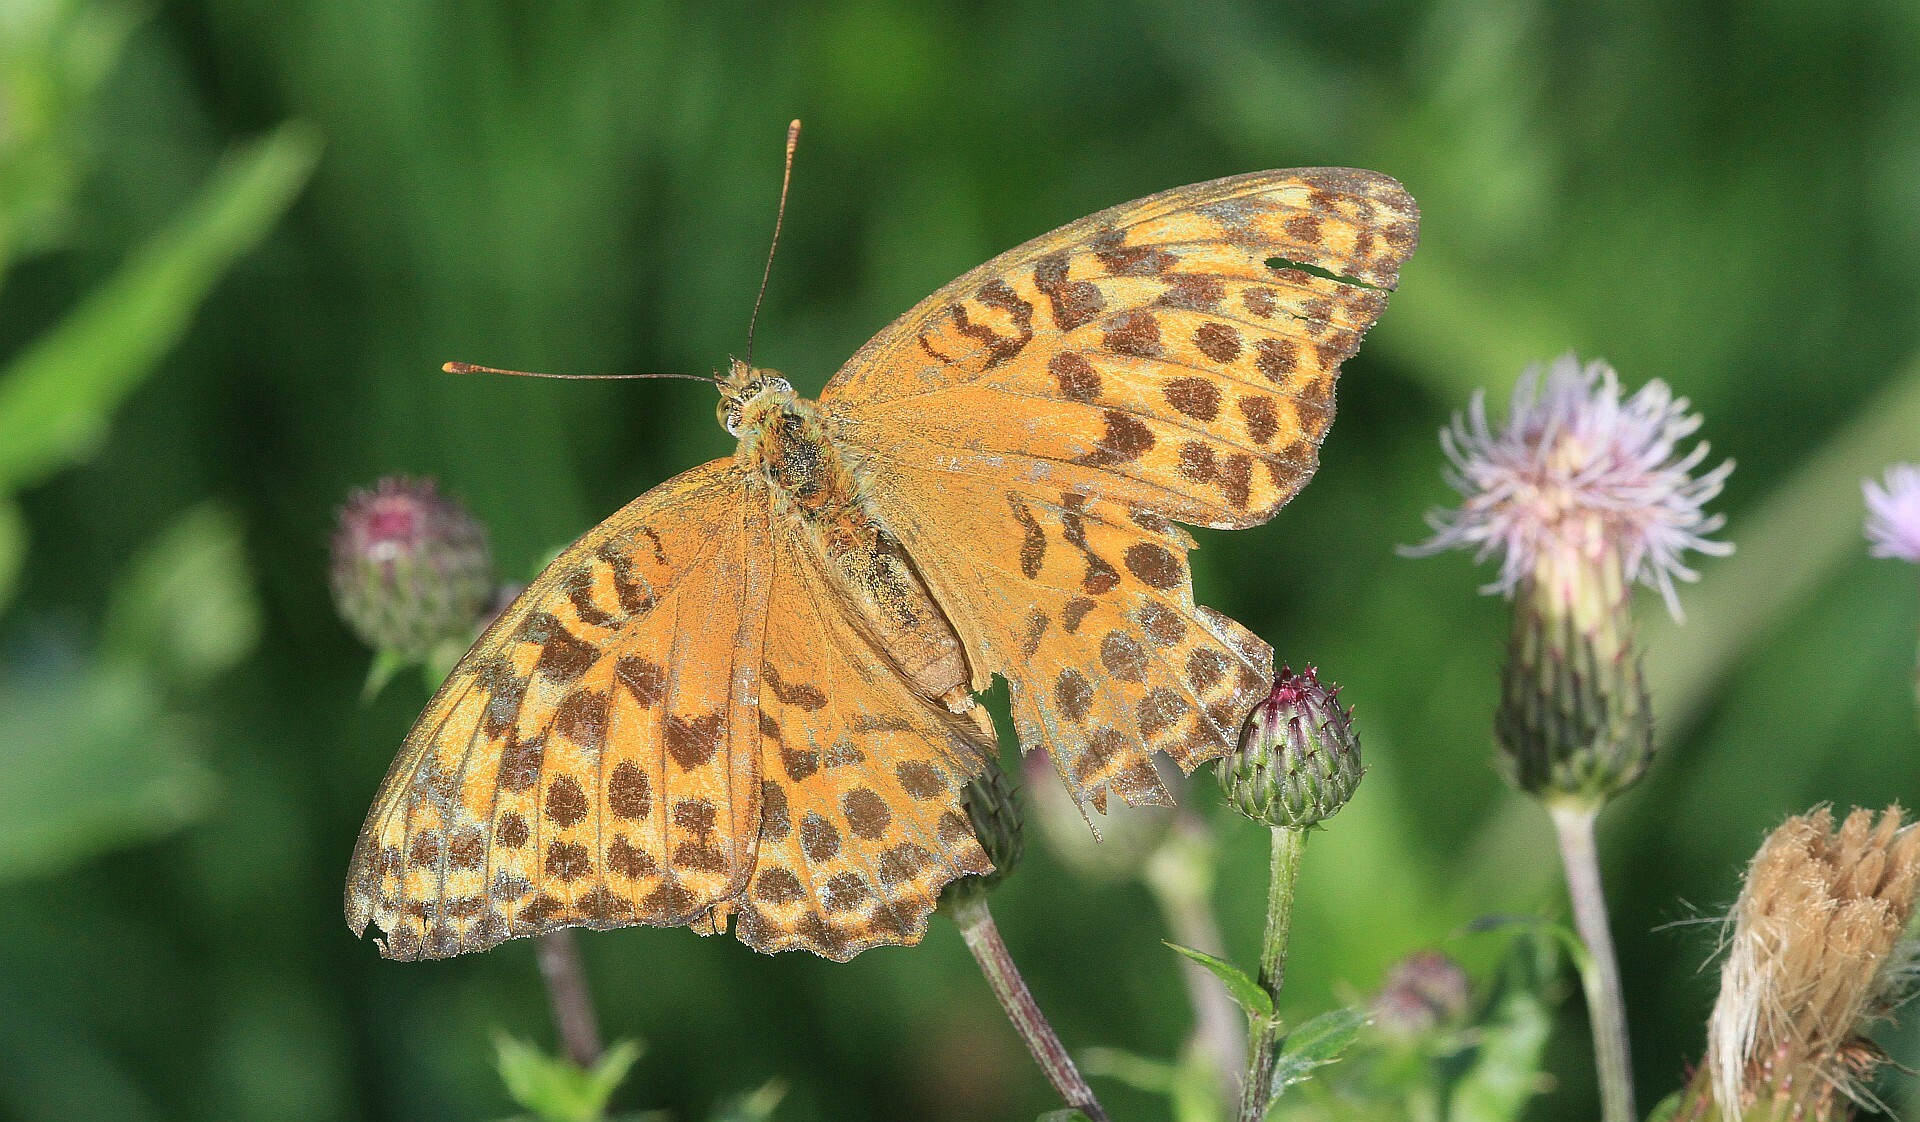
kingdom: Animalia
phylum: Arthropoda
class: Insecta
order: Lepidoptera
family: Nymphalidae
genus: Argynnis
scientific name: Argynnis paphia
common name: Silver-washed fritillary
